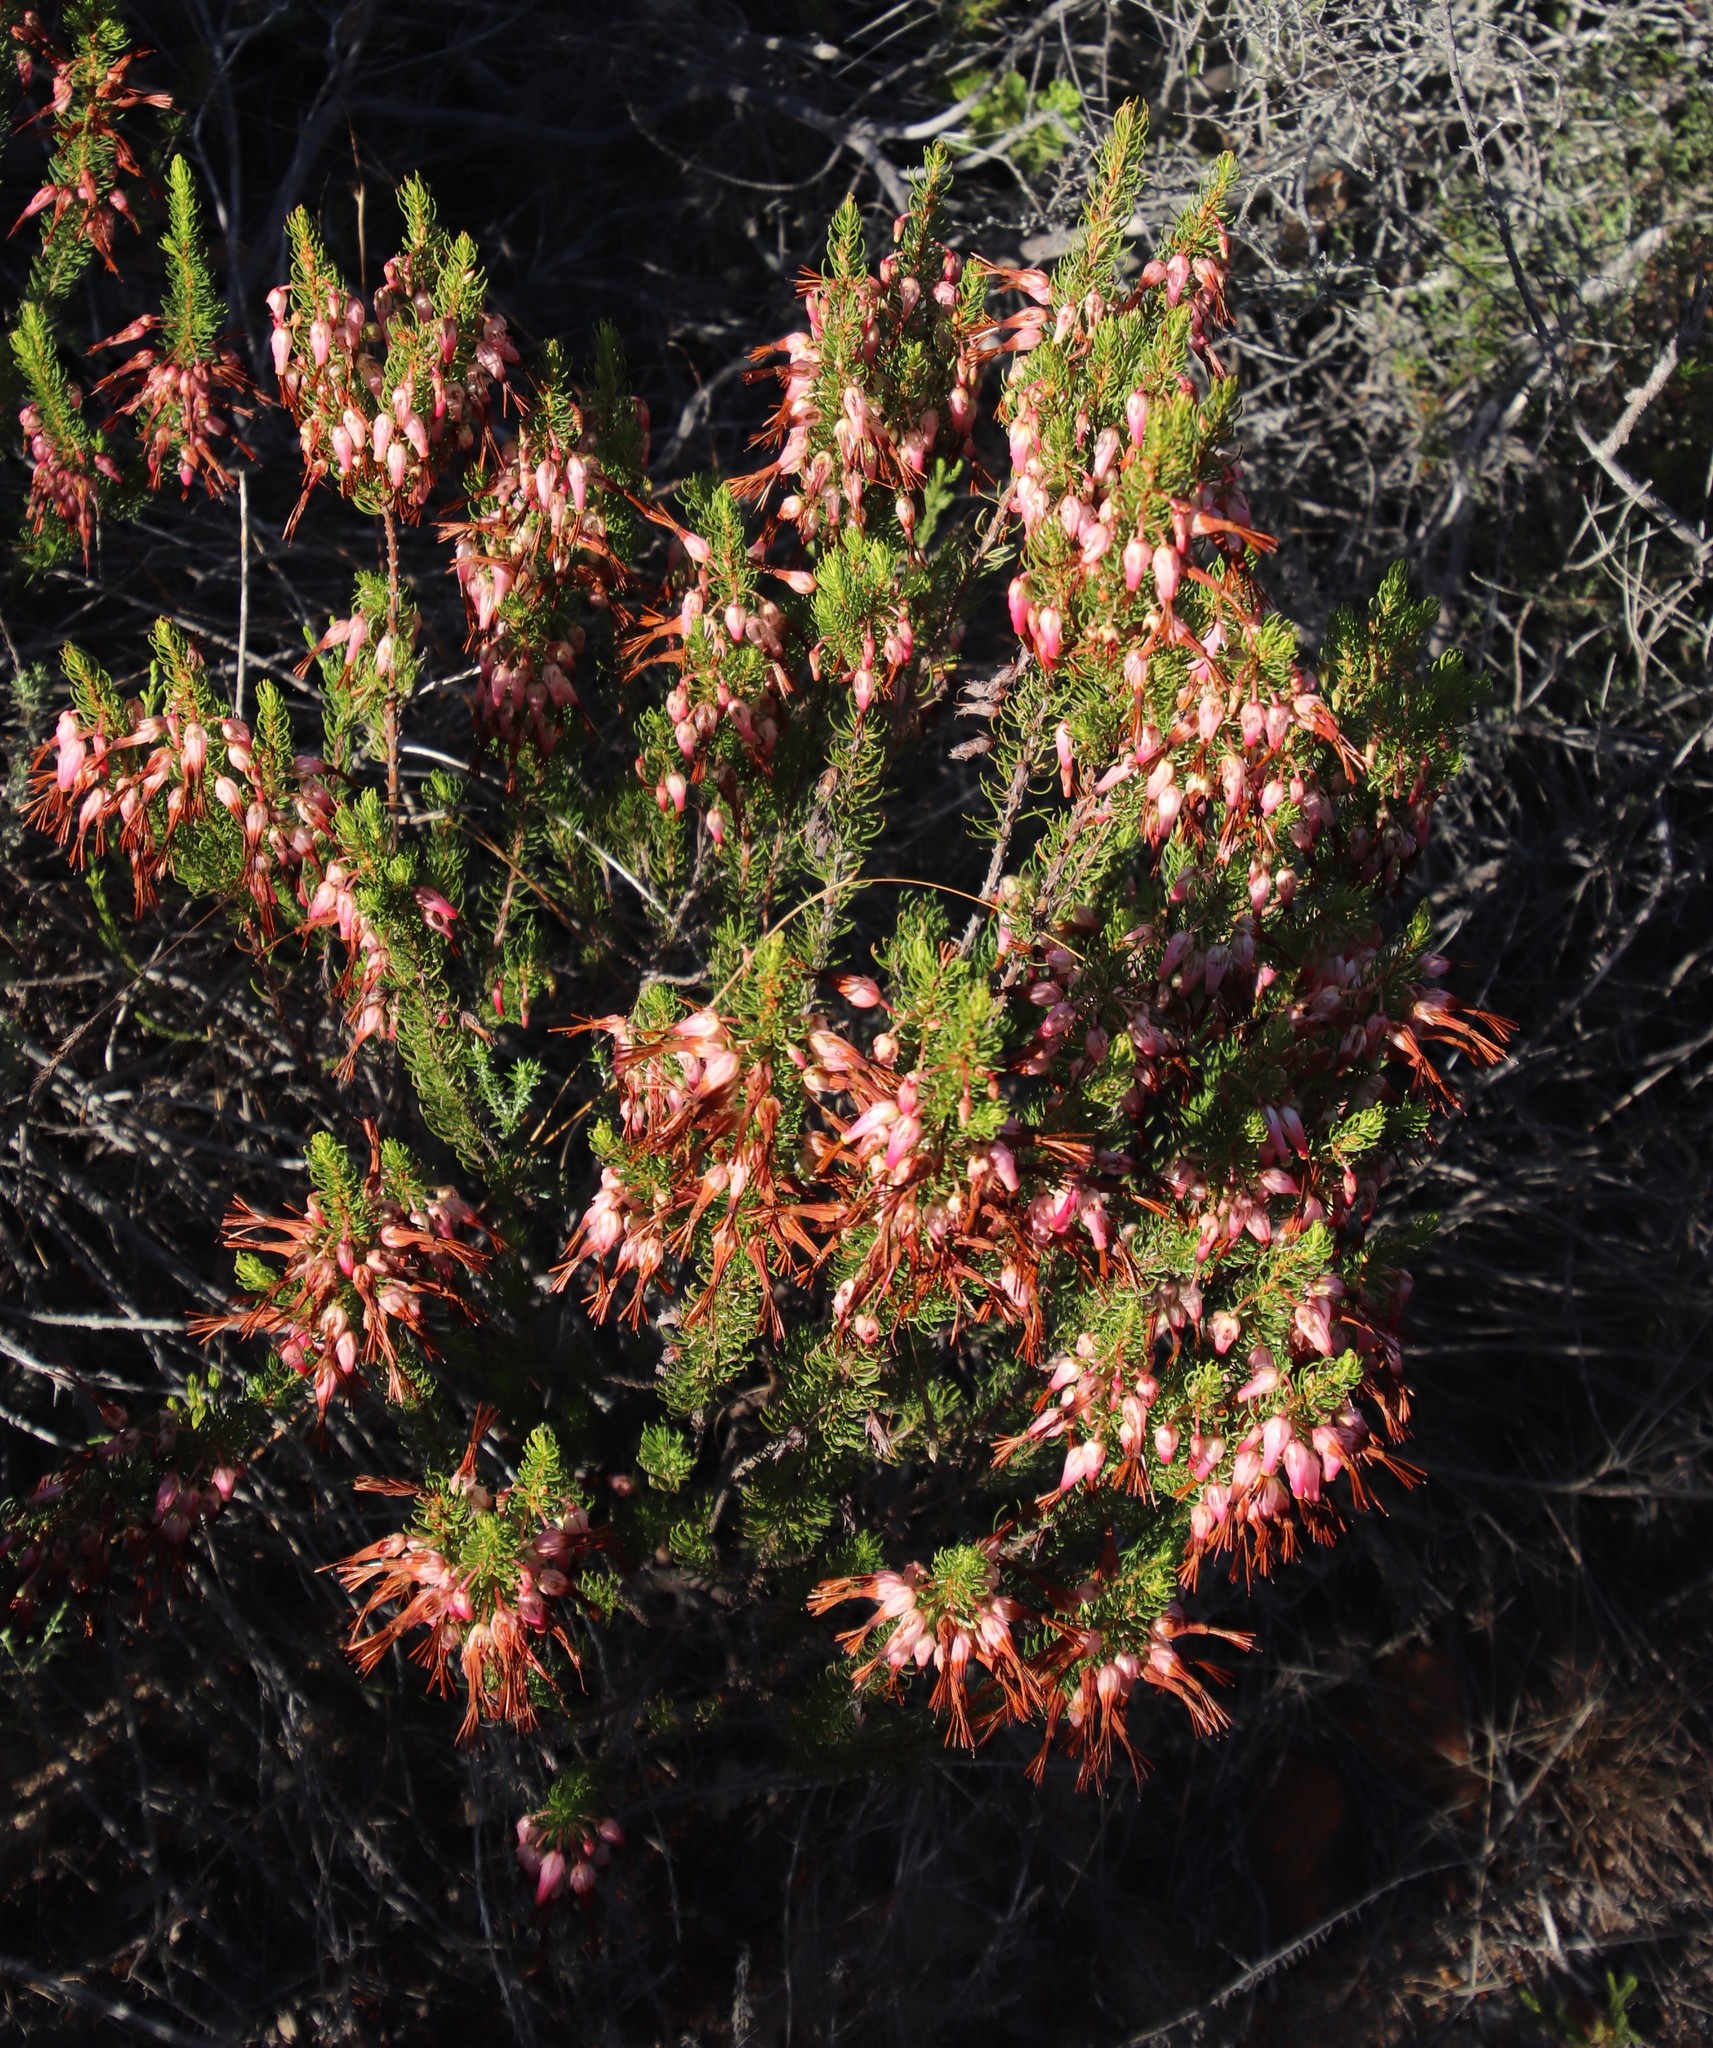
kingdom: Plantae
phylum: Tracheophyta
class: Magnoliopsida
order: Ericales
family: Ericaceae
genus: Erica
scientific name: Erica plukenetii
